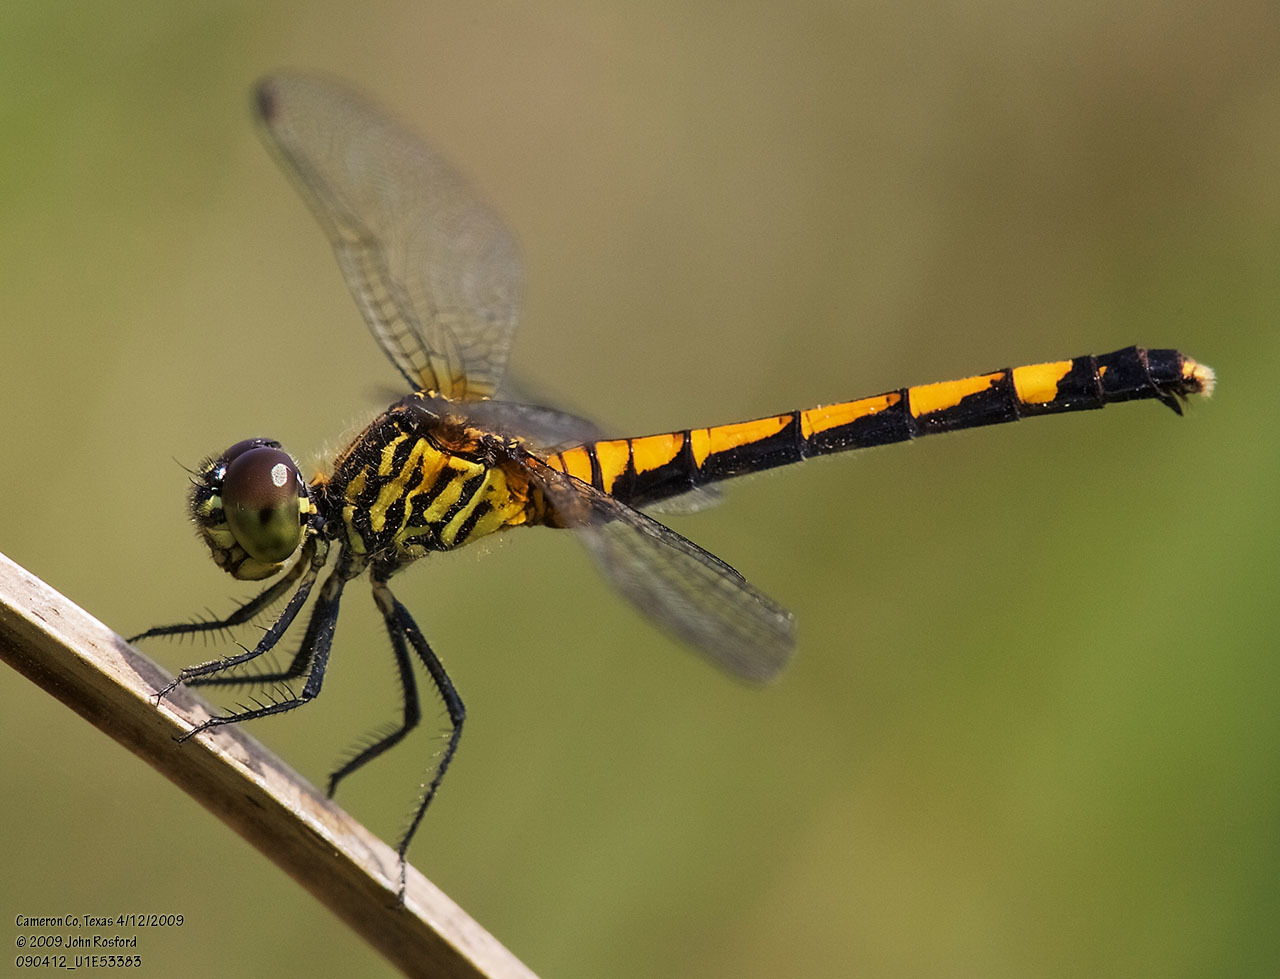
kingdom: Animalia
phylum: Arthropoda
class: Insecta
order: Odonata
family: Libellulidae
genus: Erythrodiplax
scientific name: Erythrodiplax berenice
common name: Seaside dragonlet
